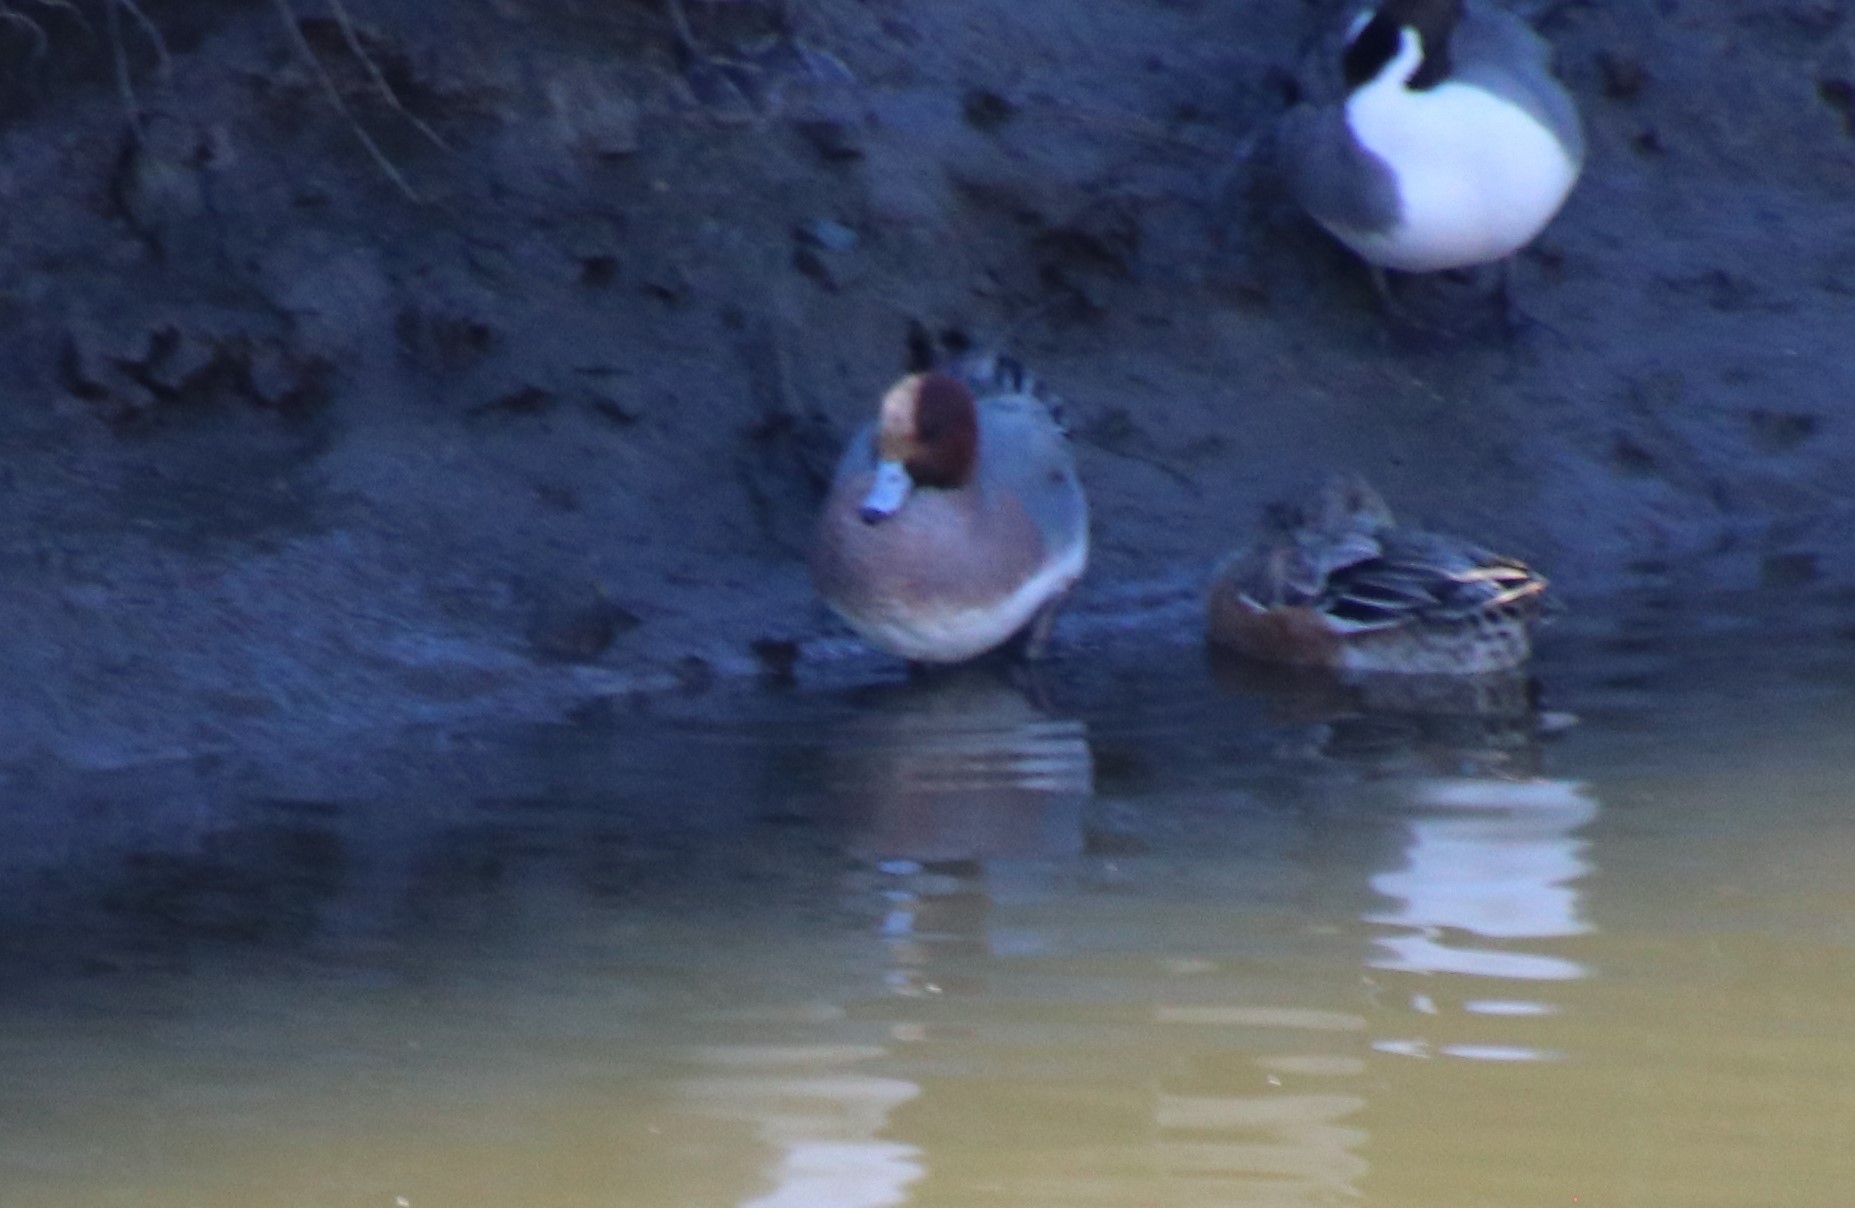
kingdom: Animalia
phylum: Chordata
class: Aves
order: Anseriformes
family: Anatidae
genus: Mareca
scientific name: Mareca penelope
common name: Eurasian wigeon
